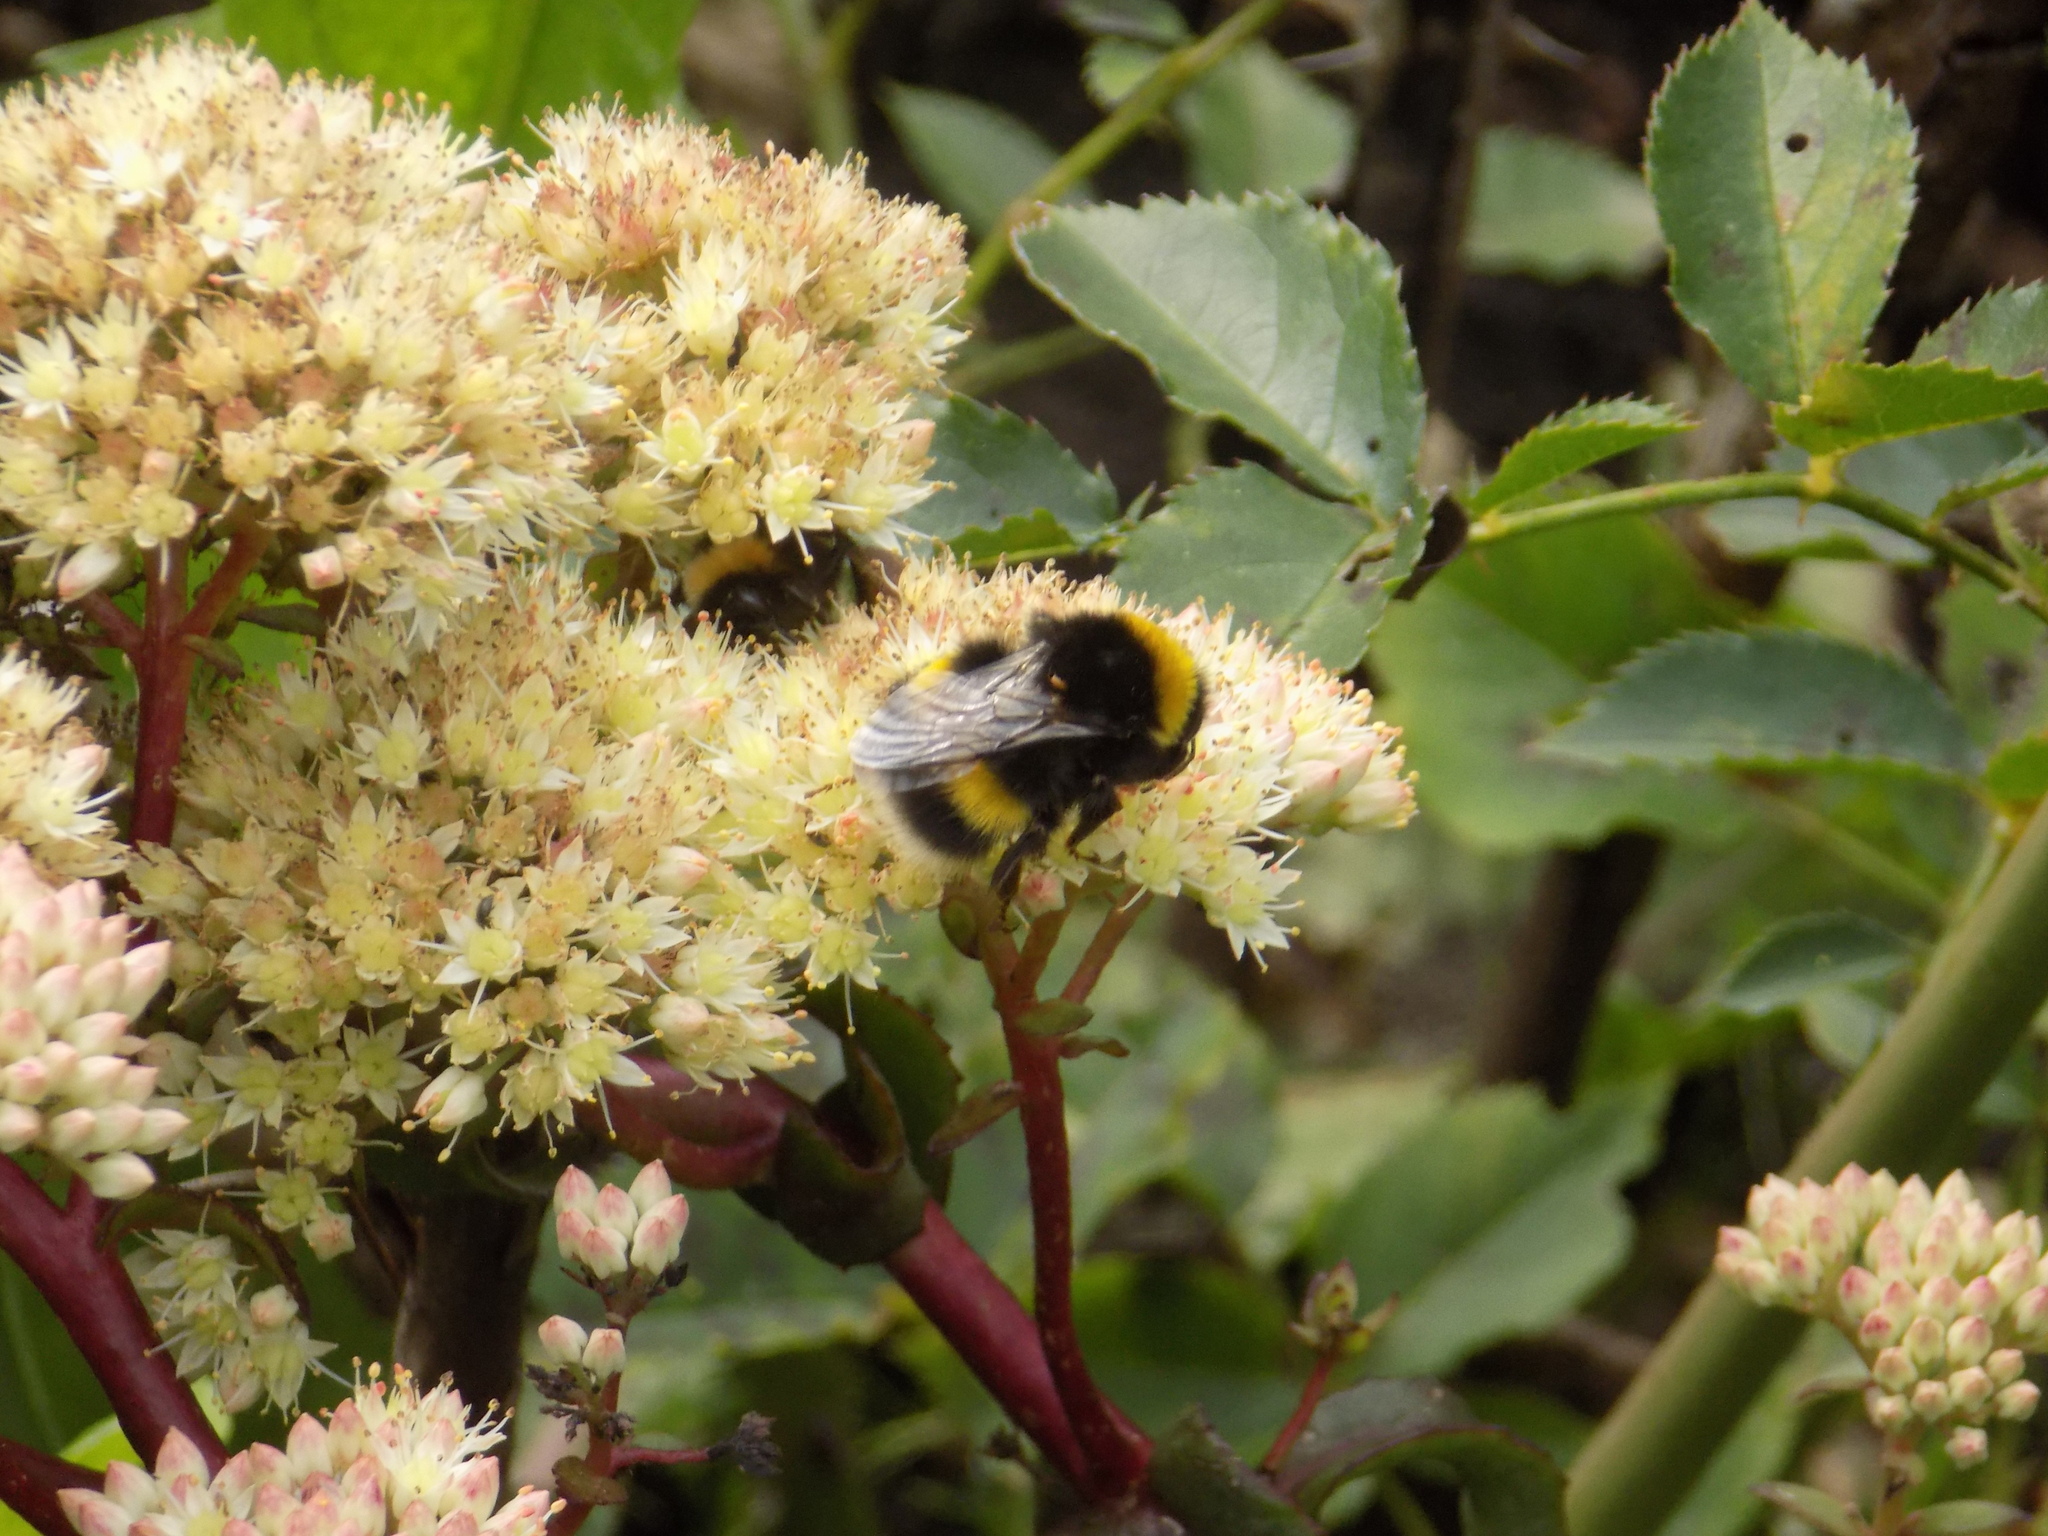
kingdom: Animalia
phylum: Arthropoda
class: Insecta
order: Hymenoptera
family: Apidae
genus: Bombus
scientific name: Bombus
